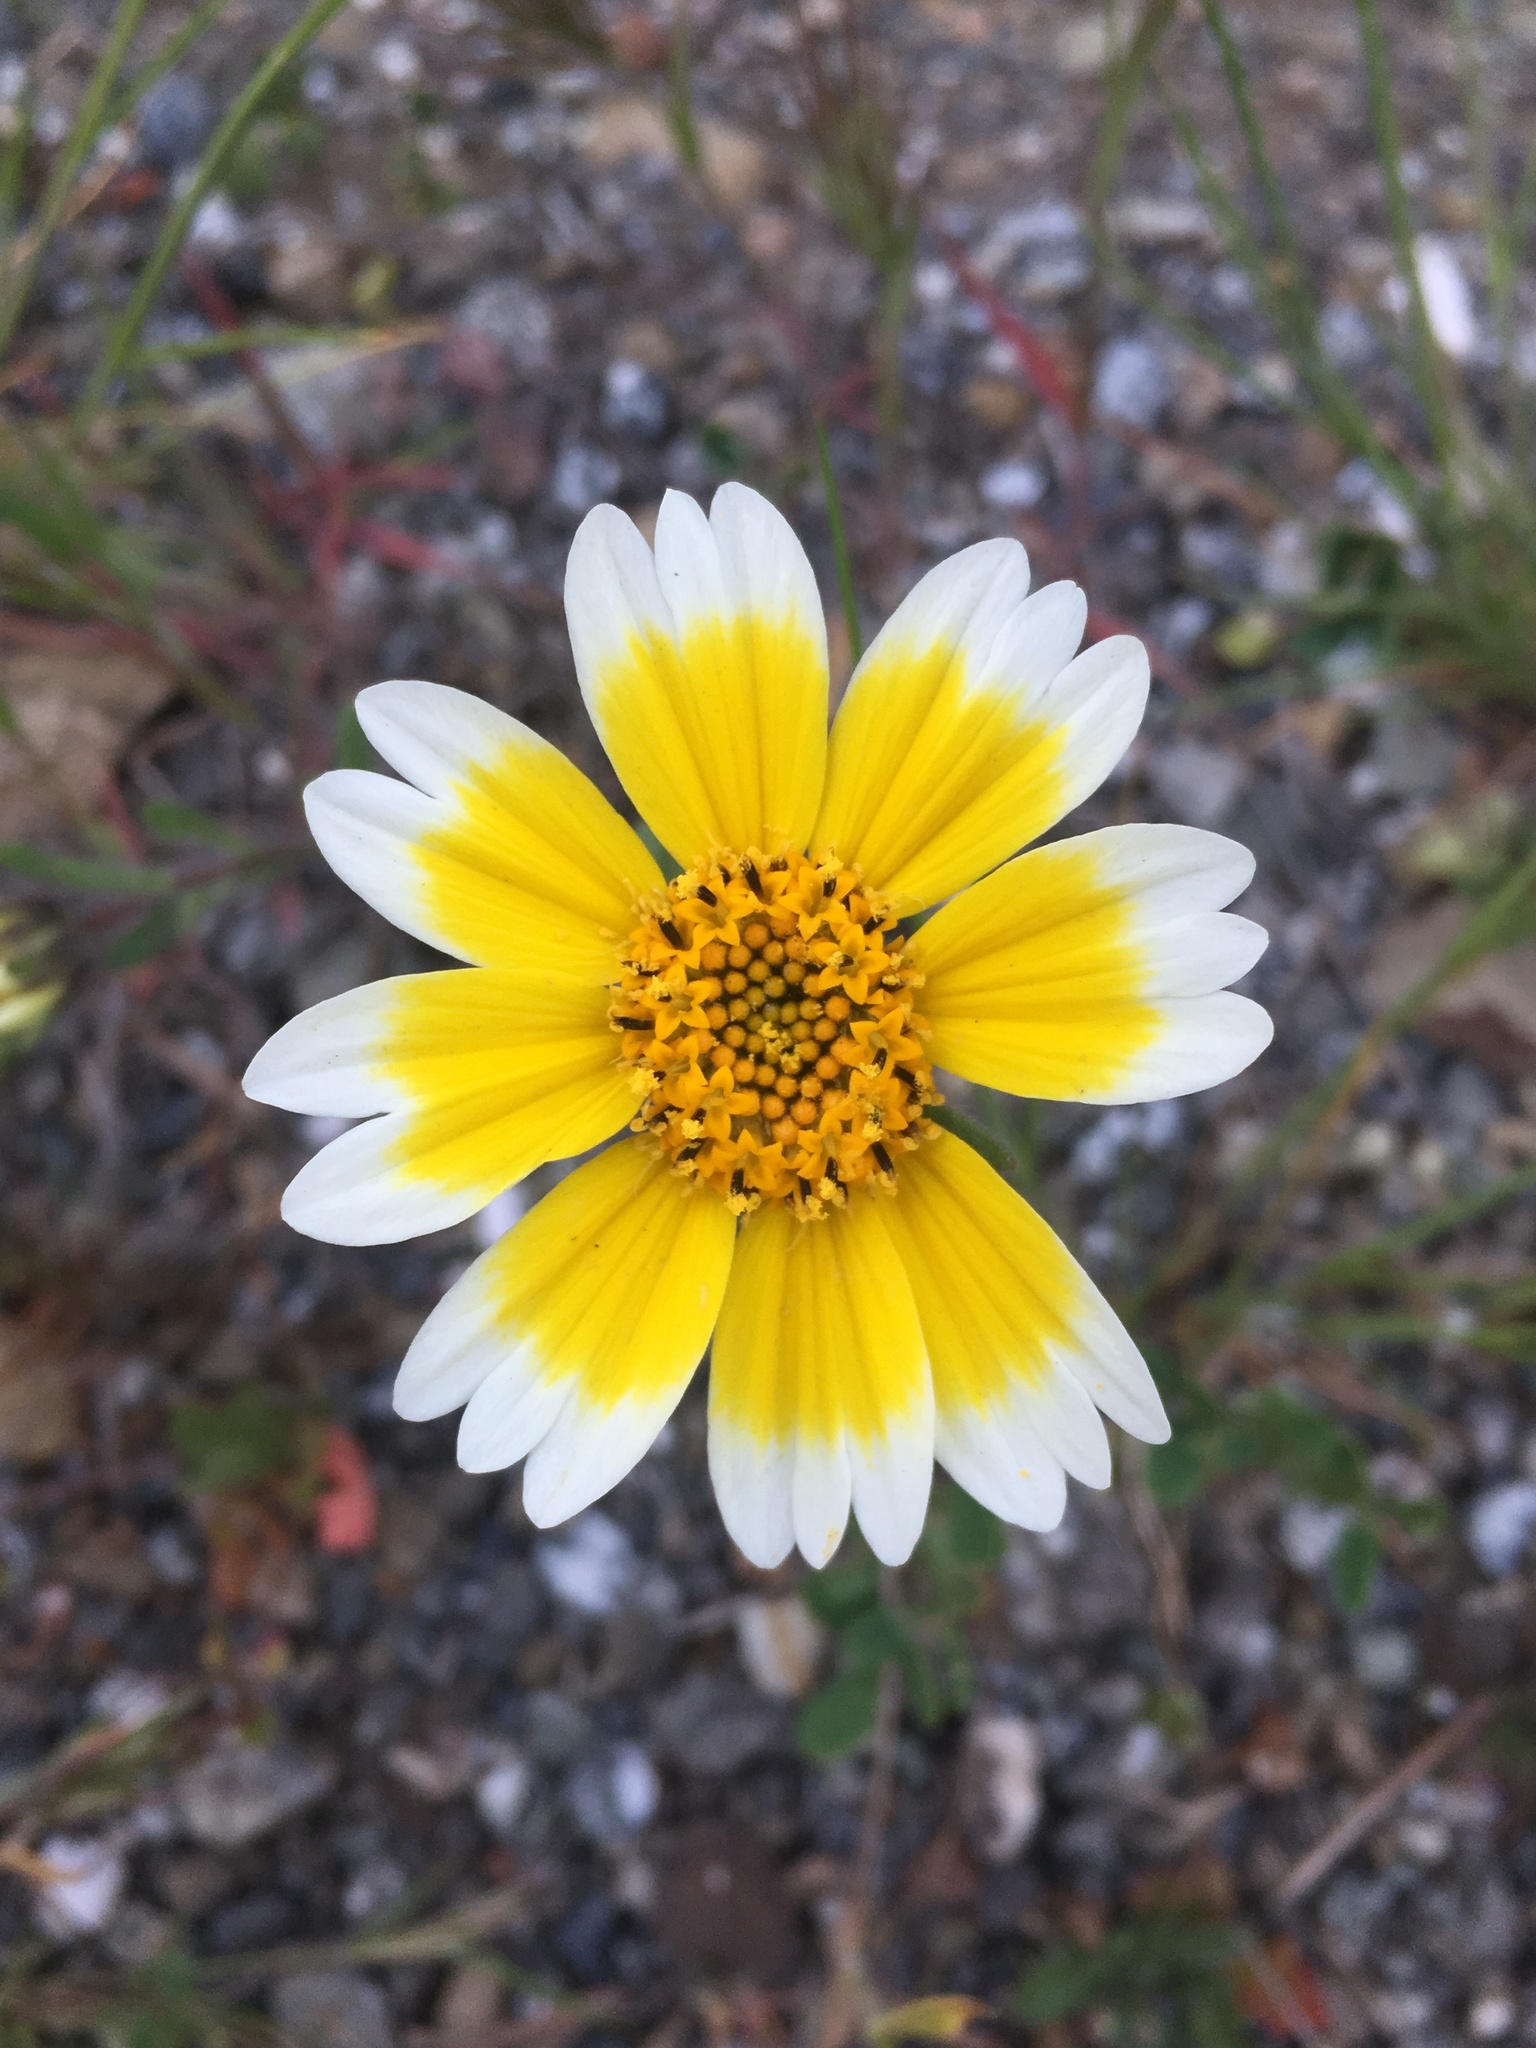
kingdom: Plantae
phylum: Tracheophyta
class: Magnoliopsida
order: Asterales
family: Asteraceae
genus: Layia
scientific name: Layia platyglossa
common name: Tidy-tips
